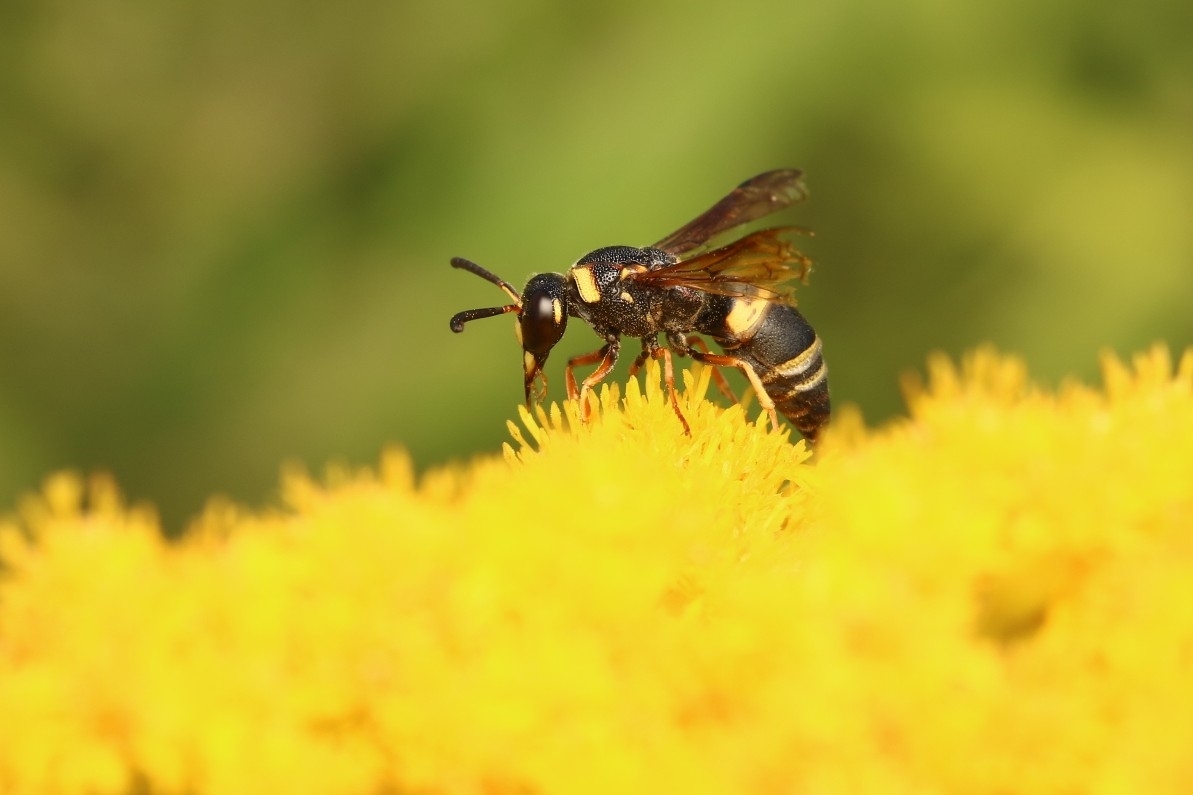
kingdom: Animalia
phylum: Arthropoda
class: Insecta
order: Hymenoptera
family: Eumenidae
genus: Euodynerus
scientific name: Euodynerus hidalgo
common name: Wasp
